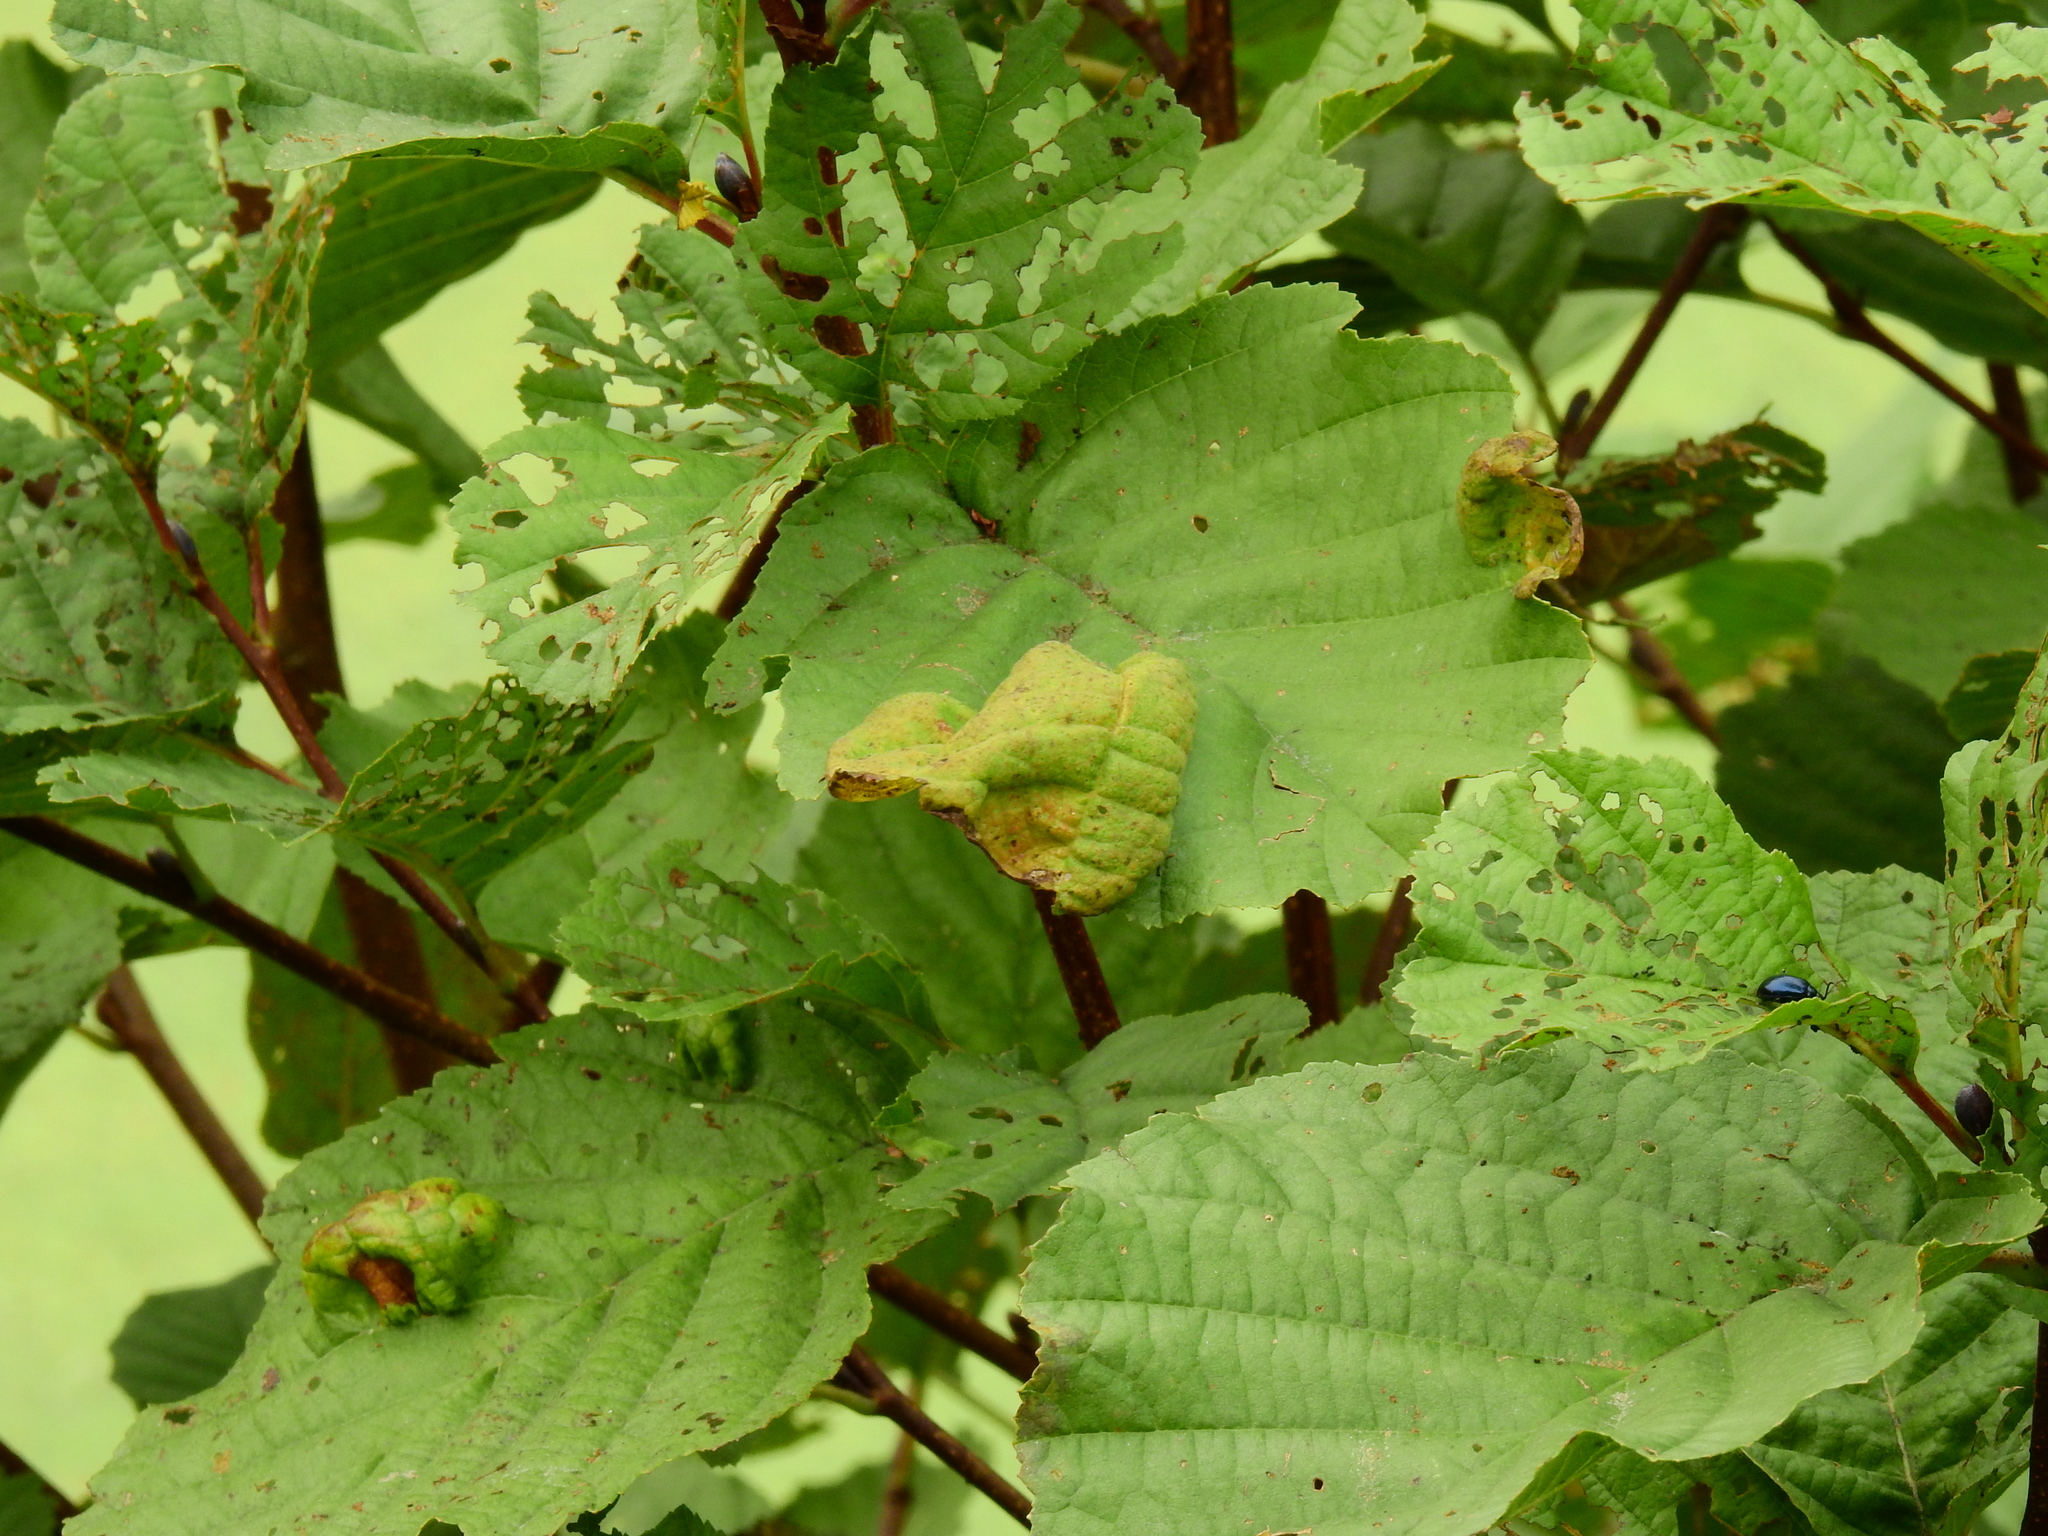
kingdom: Fungi
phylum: Ascomycota
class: Taphrinomycetes
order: Taphrinales
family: Taphrinaceae
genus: Taphrina
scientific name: Taphrina tosquinetii
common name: Alder wrinkle
